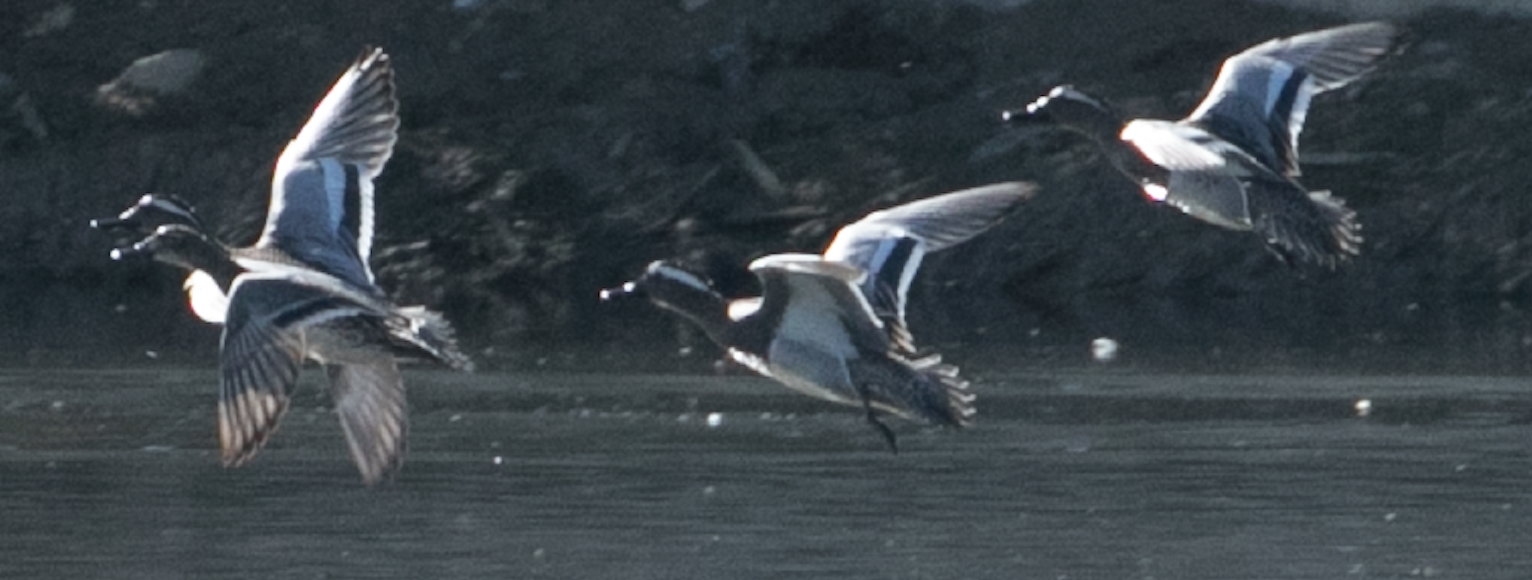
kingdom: Animalia
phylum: Chordata
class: Aves
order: Anseriformes
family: Anatidae
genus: Spatula
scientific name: Spatula querquedula
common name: Garganey
